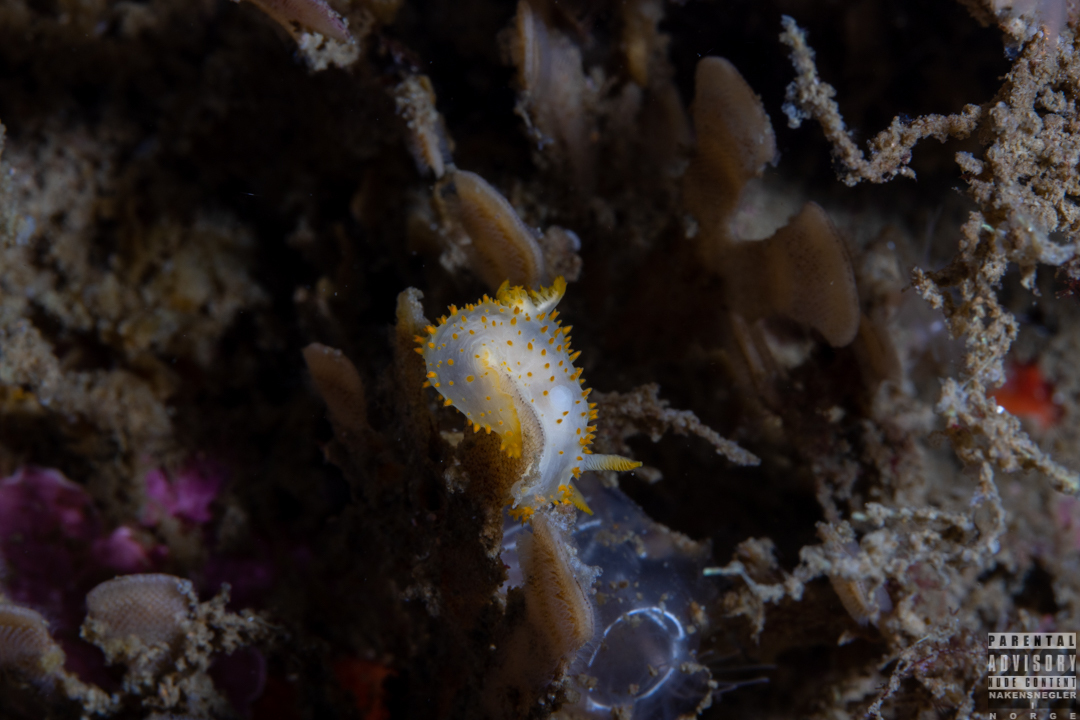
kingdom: Animalia
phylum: Mollusca
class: Gastropoda
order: Nudibranchia
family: Polyceridae
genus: Crimora
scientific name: Crimora papillata
